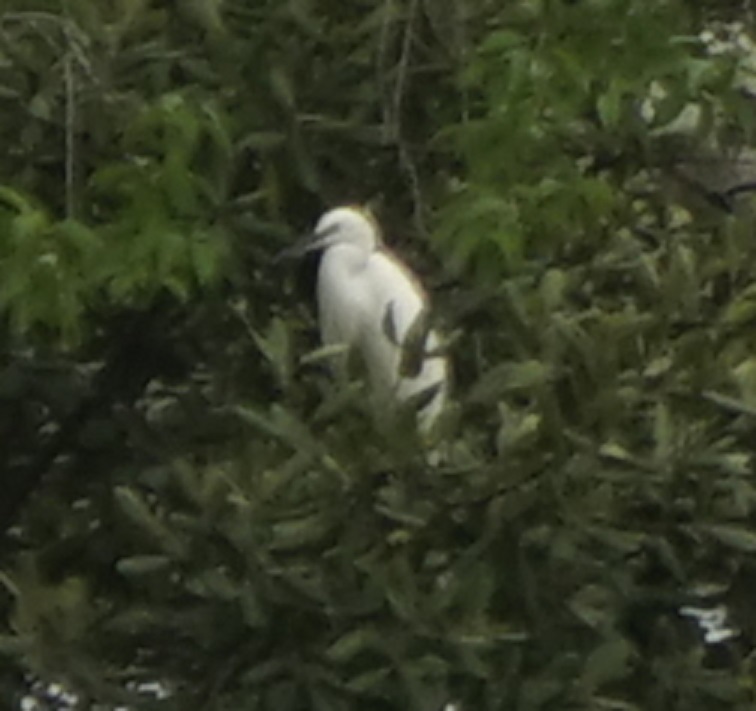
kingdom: Animalia
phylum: Chordata
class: Aves
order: Pelecaniformes
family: Ardeidae
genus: Egretta
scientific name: Egretta garzetta
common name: Little egret
